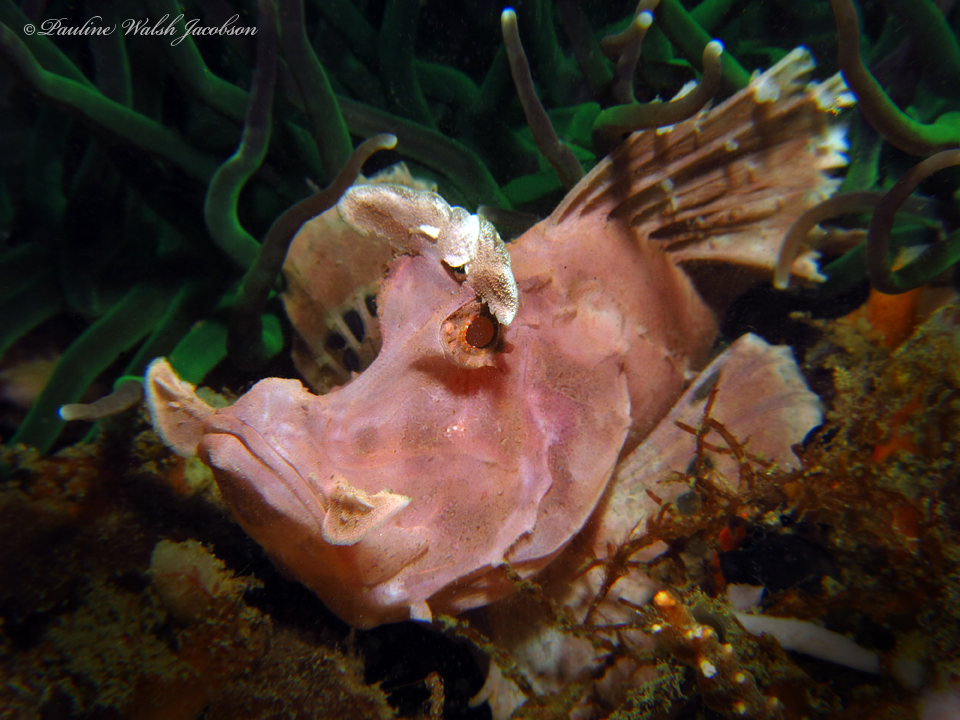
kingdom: Animalia
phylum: Chordata
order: Scorpaeniformes
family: Scorpaenidae
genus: Rhinopias
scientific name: Rhinopias eschmeyeri
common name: Eschmeyer's scorpionfish
